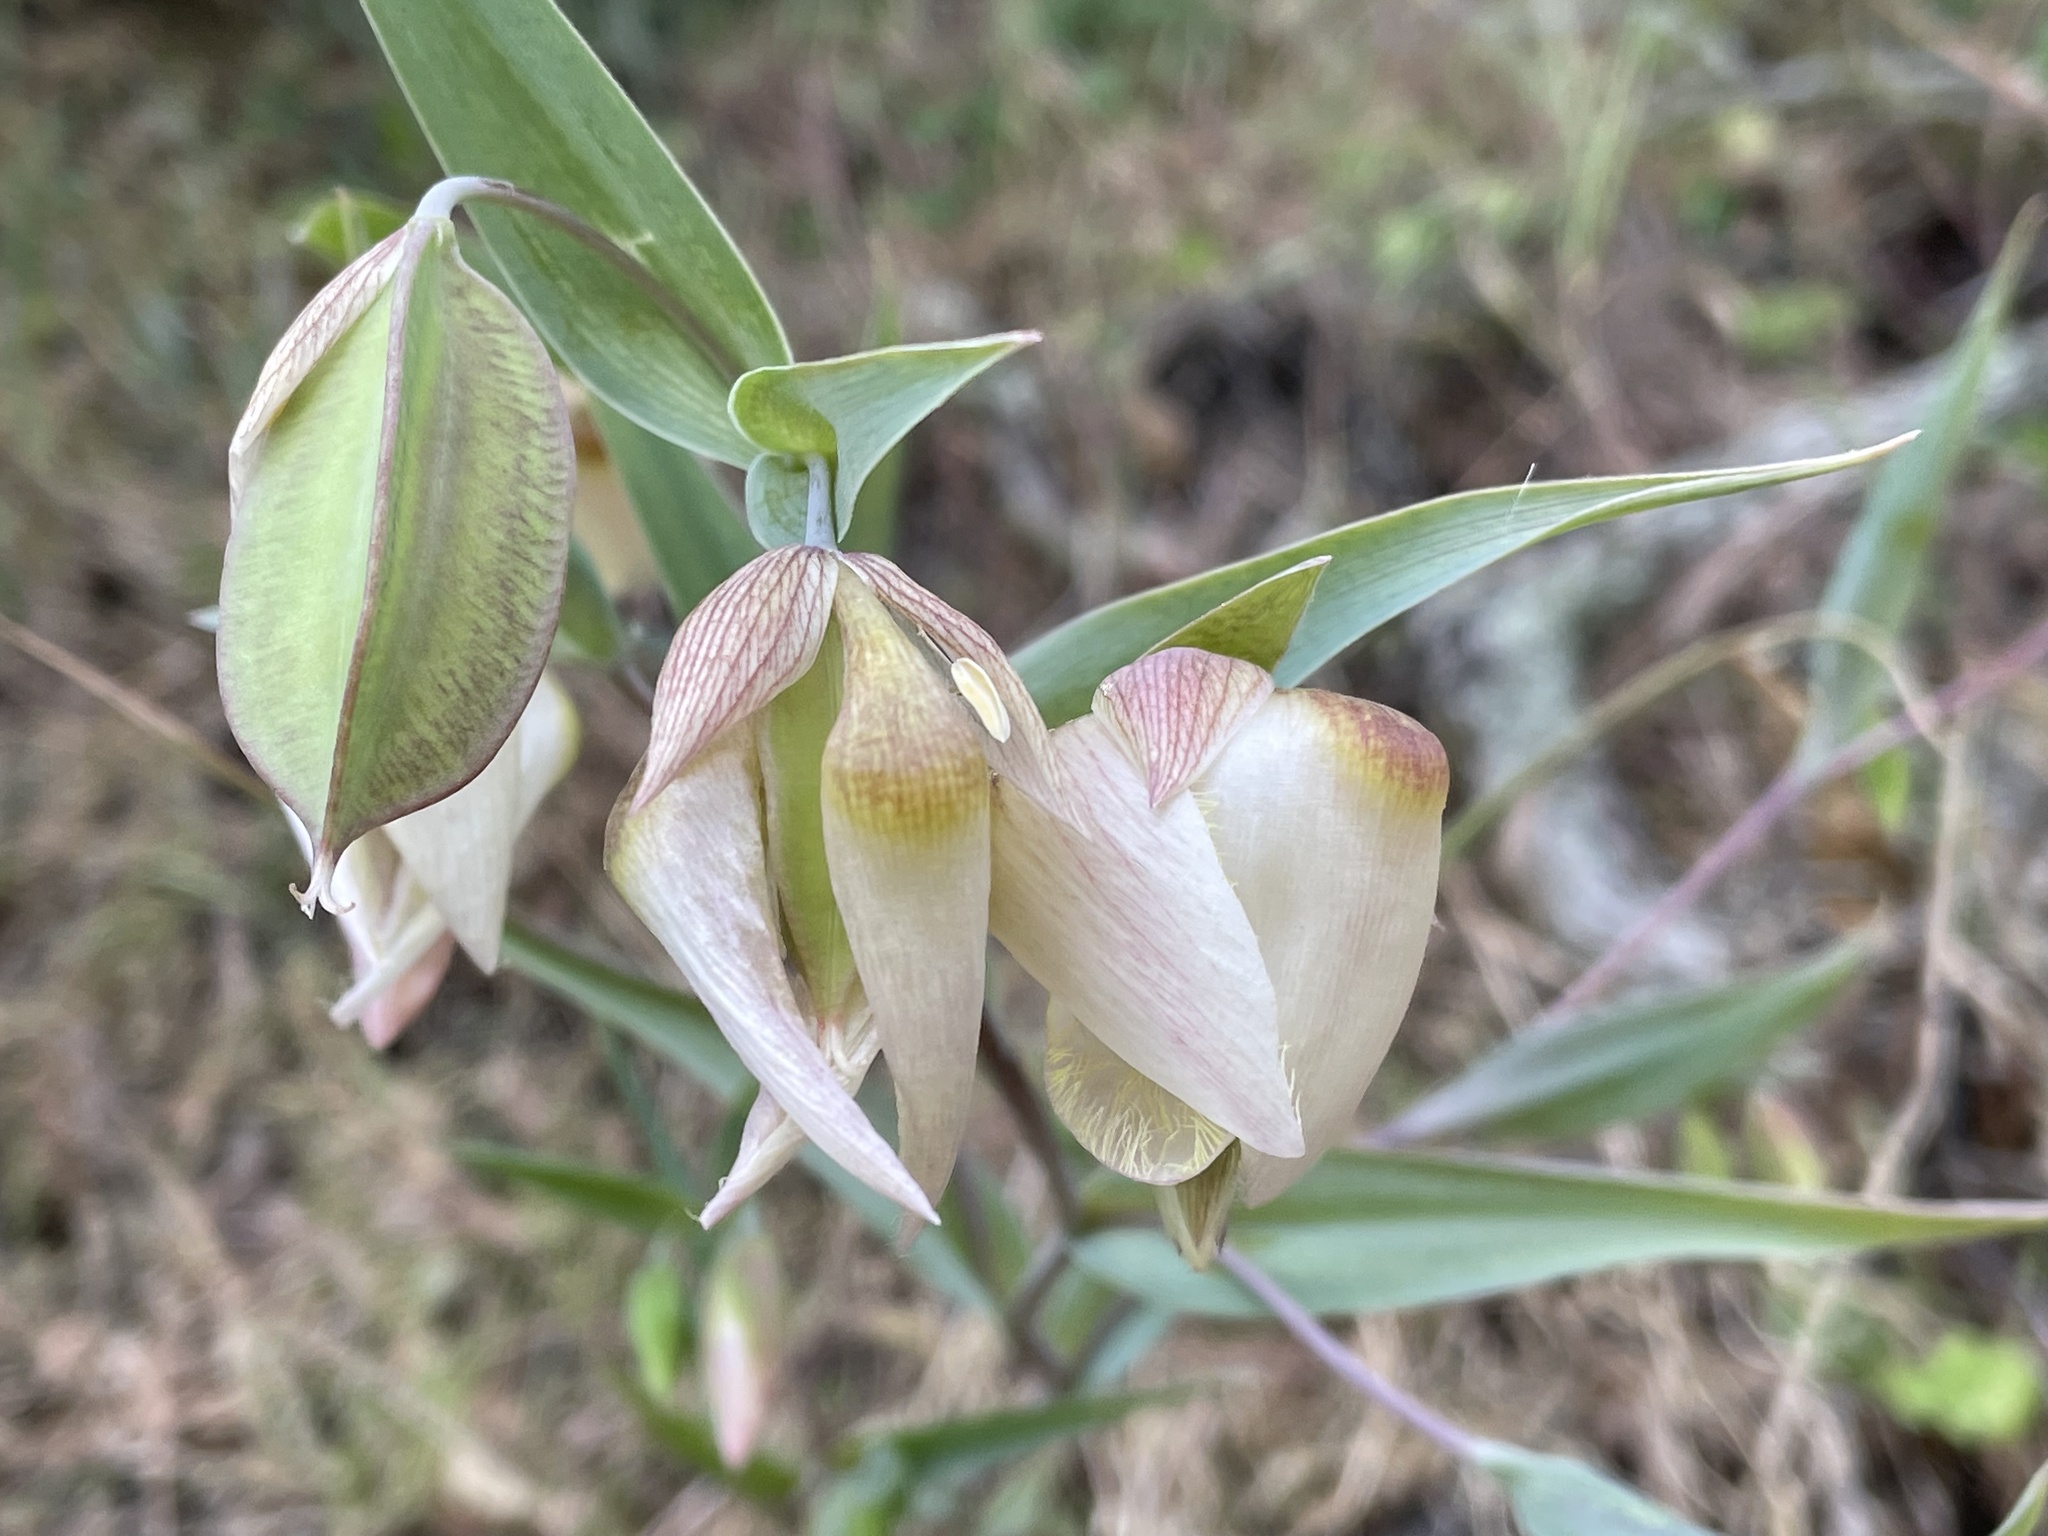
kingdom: Plantae
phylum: Tracheophyta
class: Liliopsida
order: Liliales
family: Liliaceae
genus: Calochortus
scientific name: Calochortus albus
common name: Fairy-lantern
